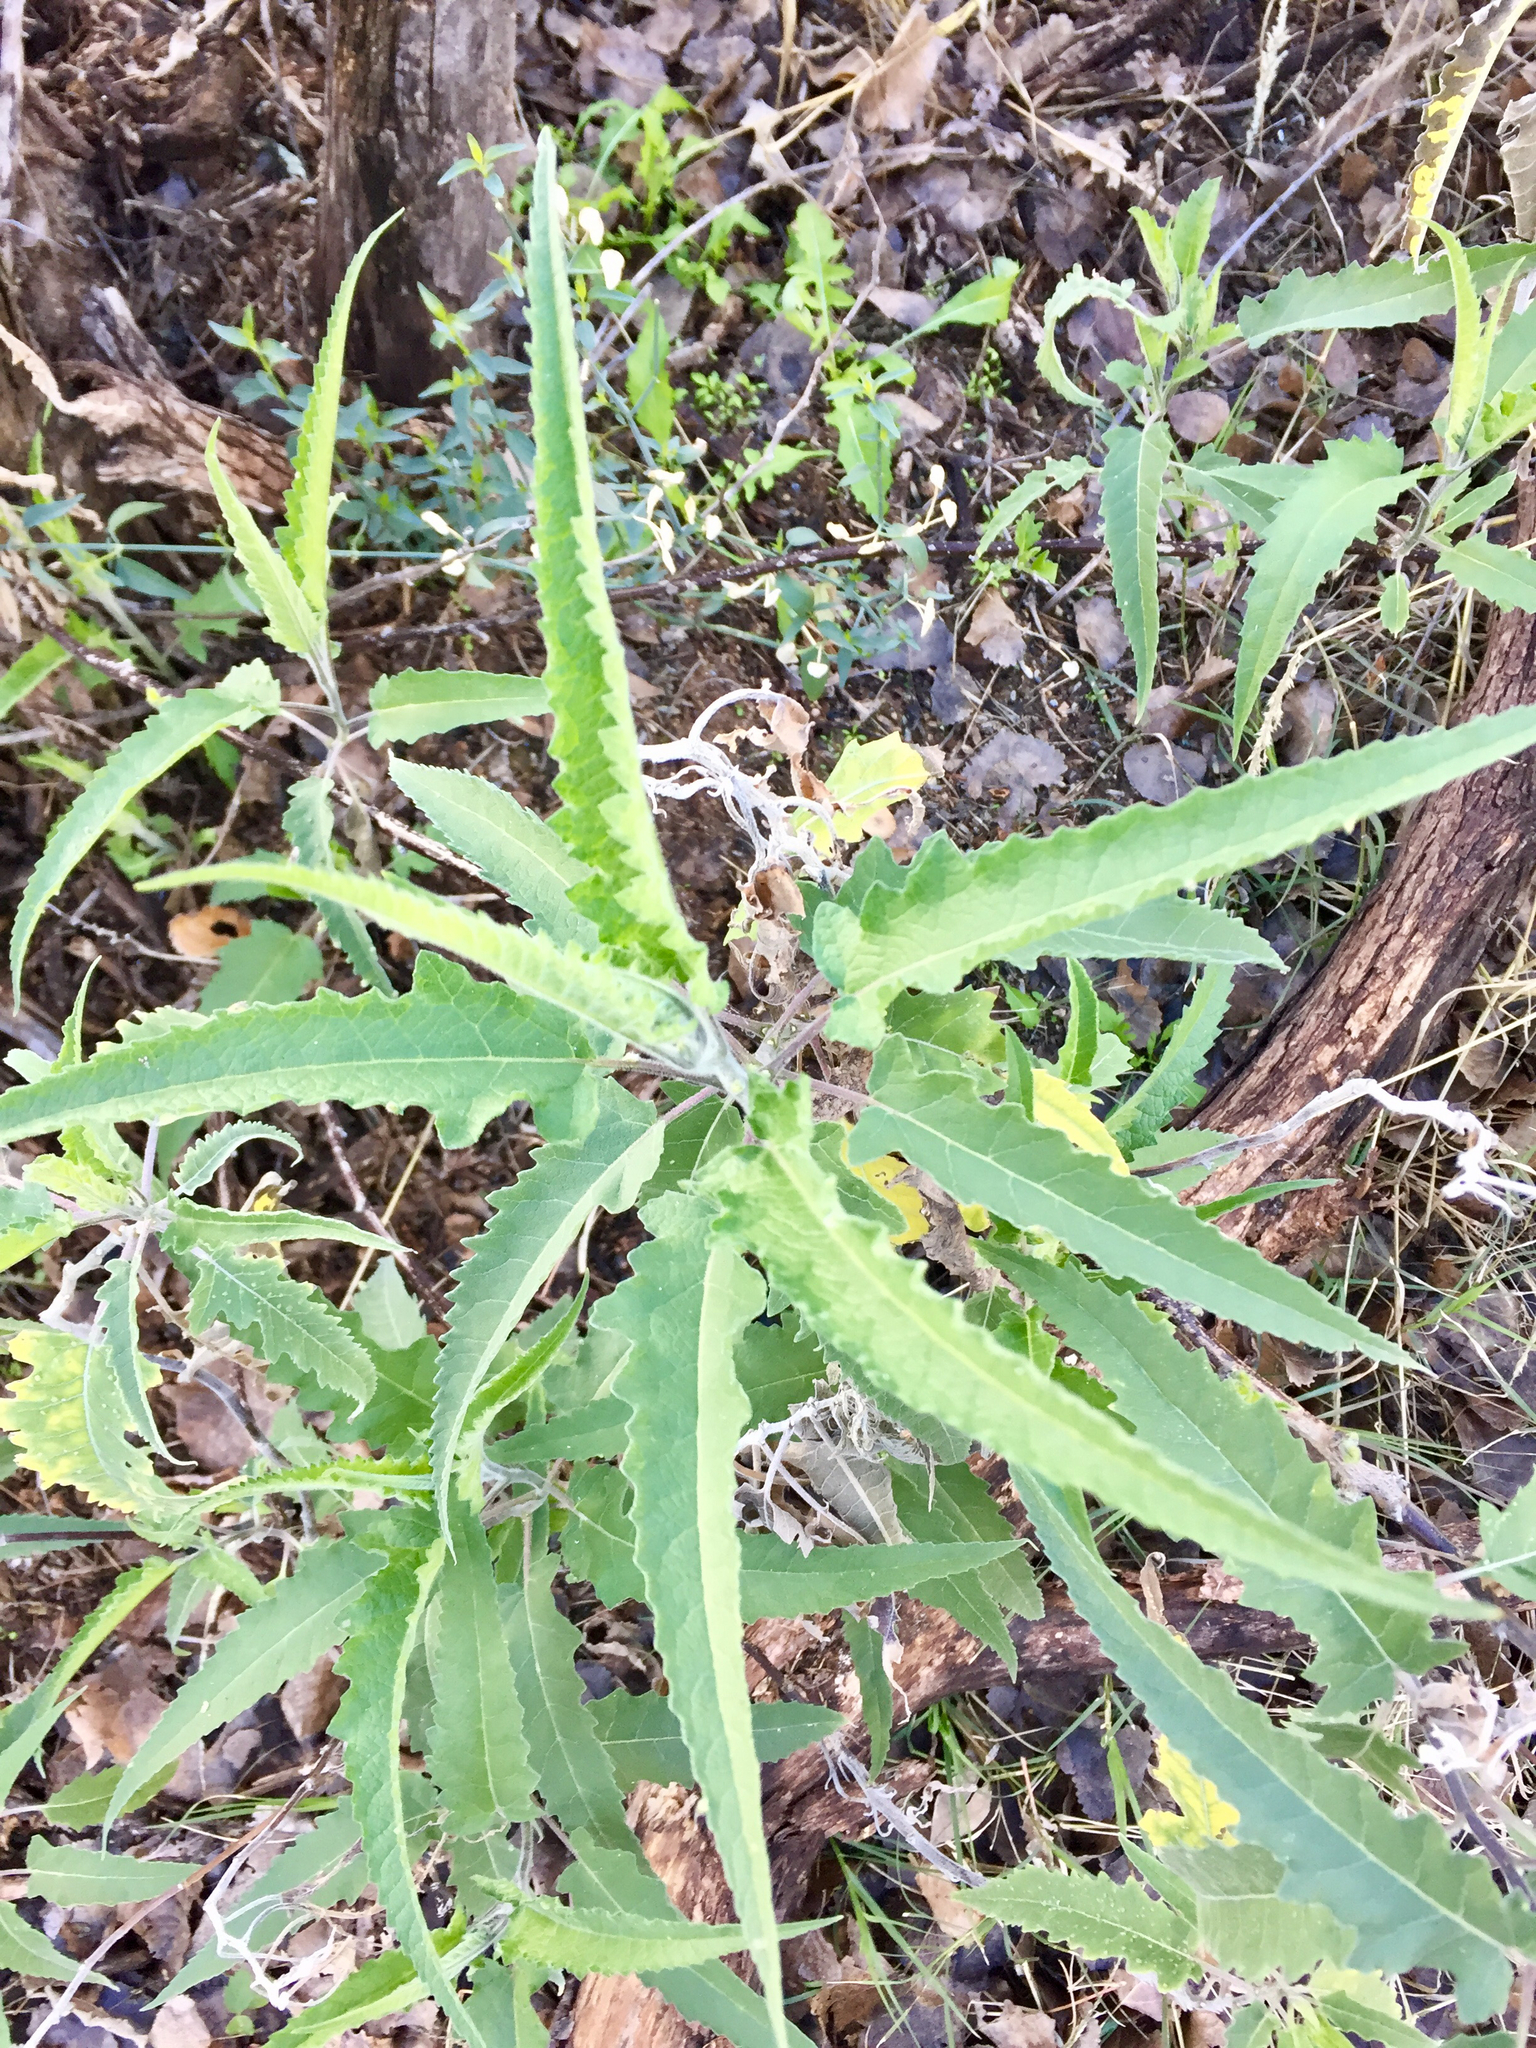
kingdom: Plantae
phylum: Tracheophyta
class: Magnoliopsida
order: Asterales
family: Asteraceae
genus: Ambrosia
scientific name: Ambrosia ambrosioides
